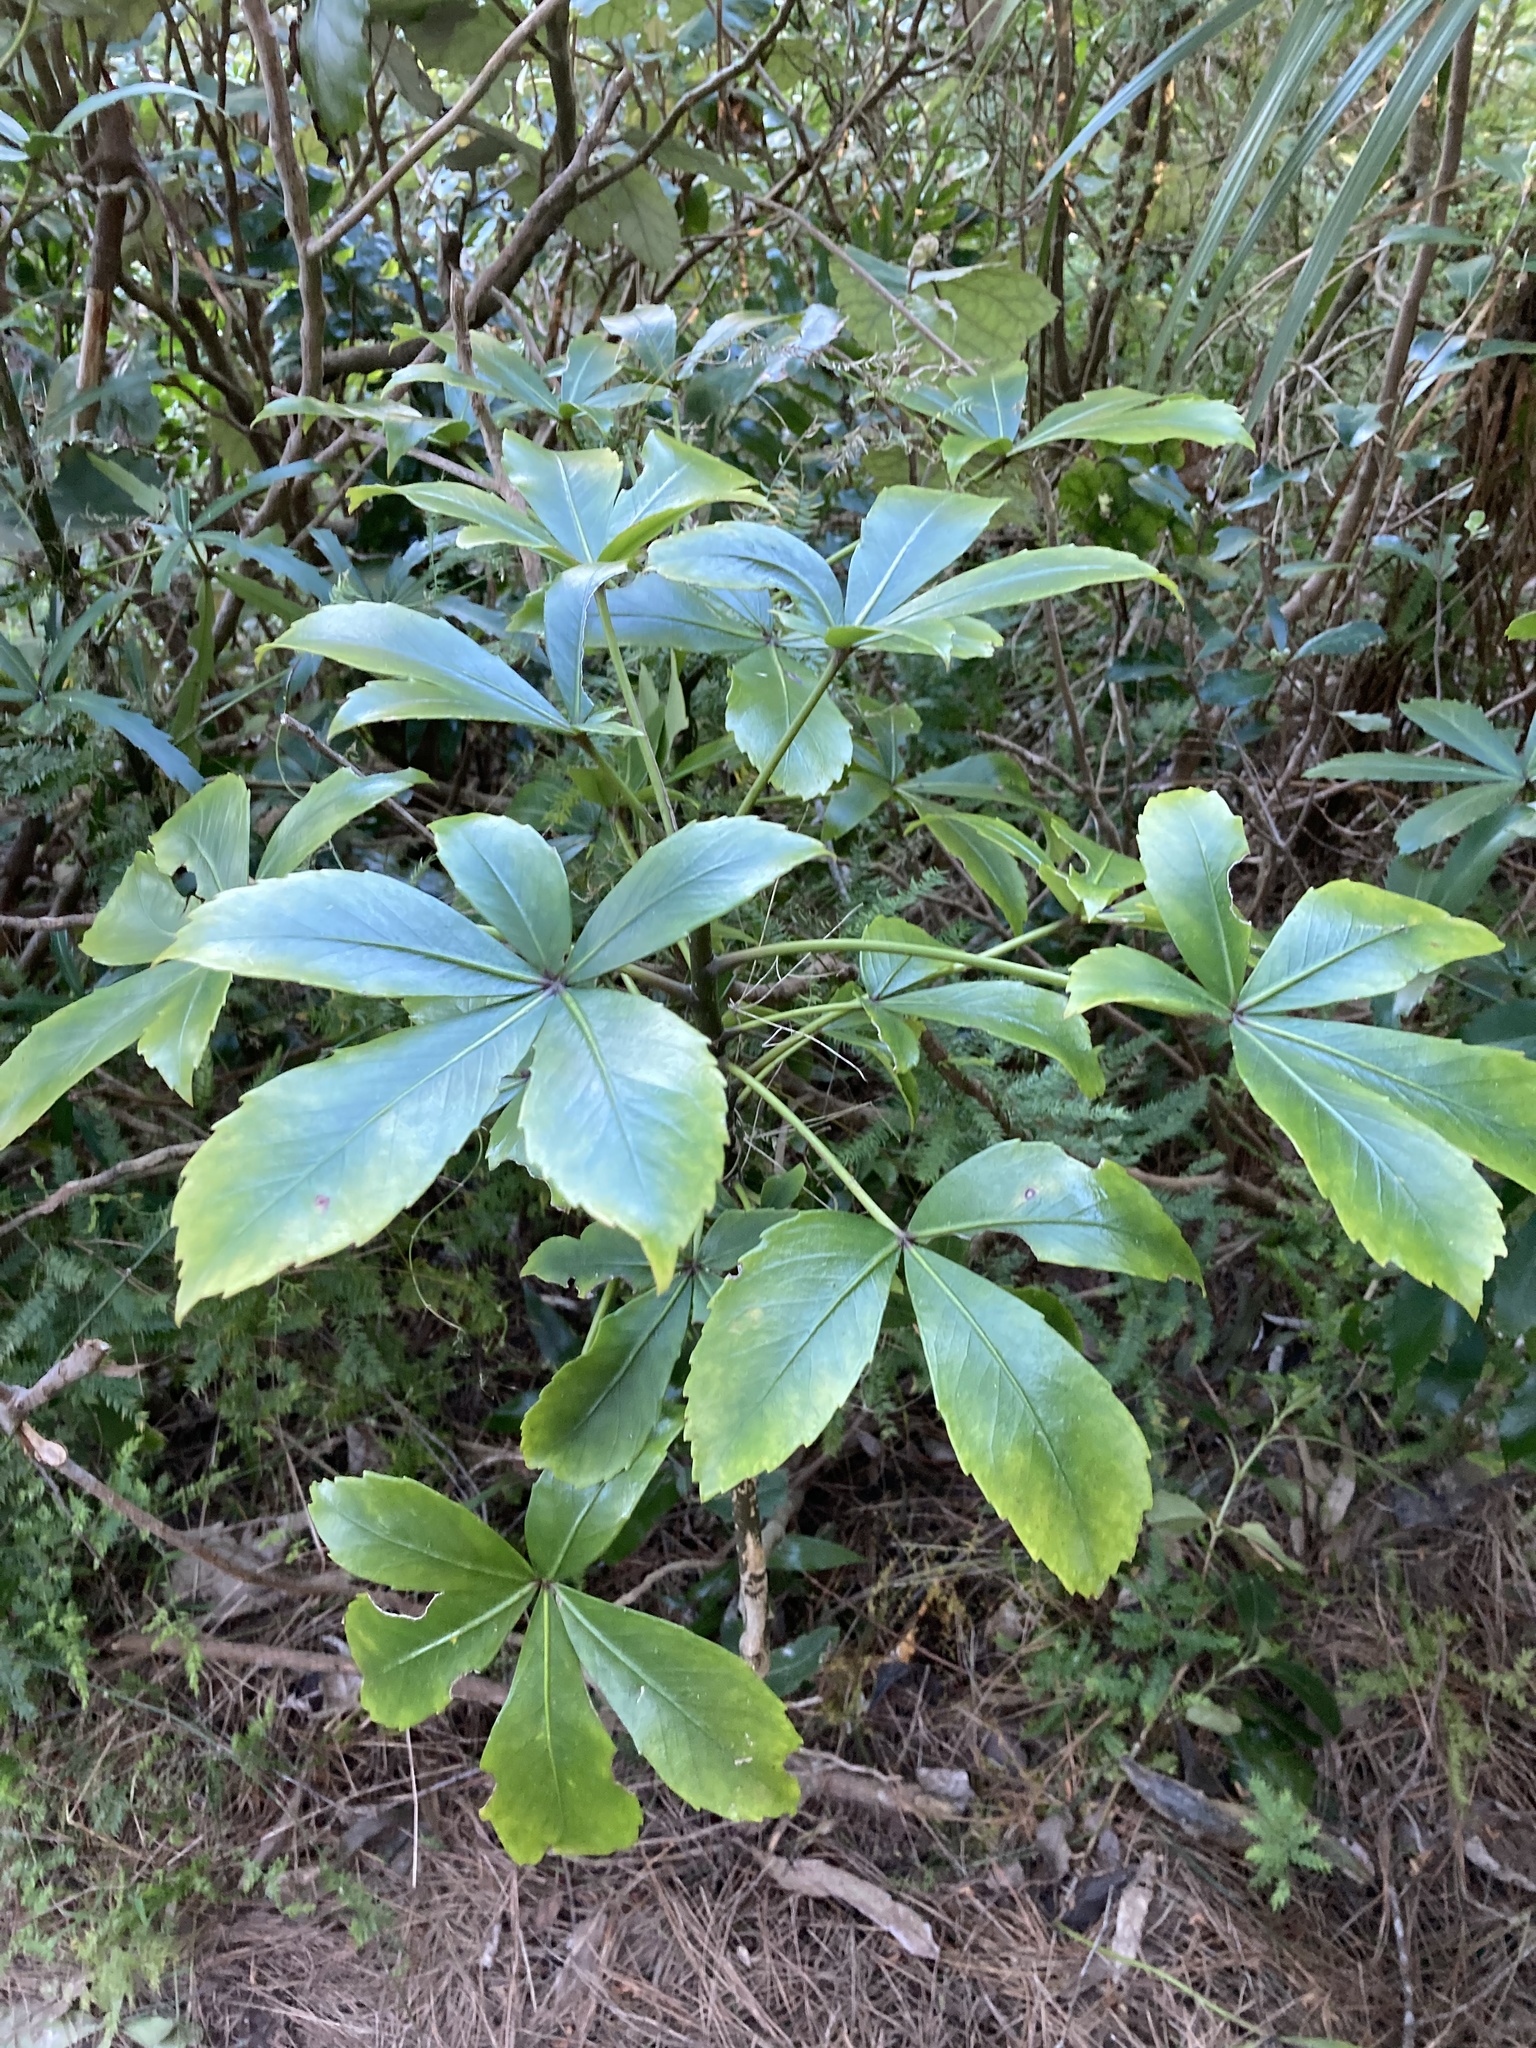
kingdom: Plantae
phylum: Tracheophyta
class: Magnoliopsida
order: Apiales
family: Araliaceae
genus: Pseudopanax
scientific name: Pseudopanax lessonii
